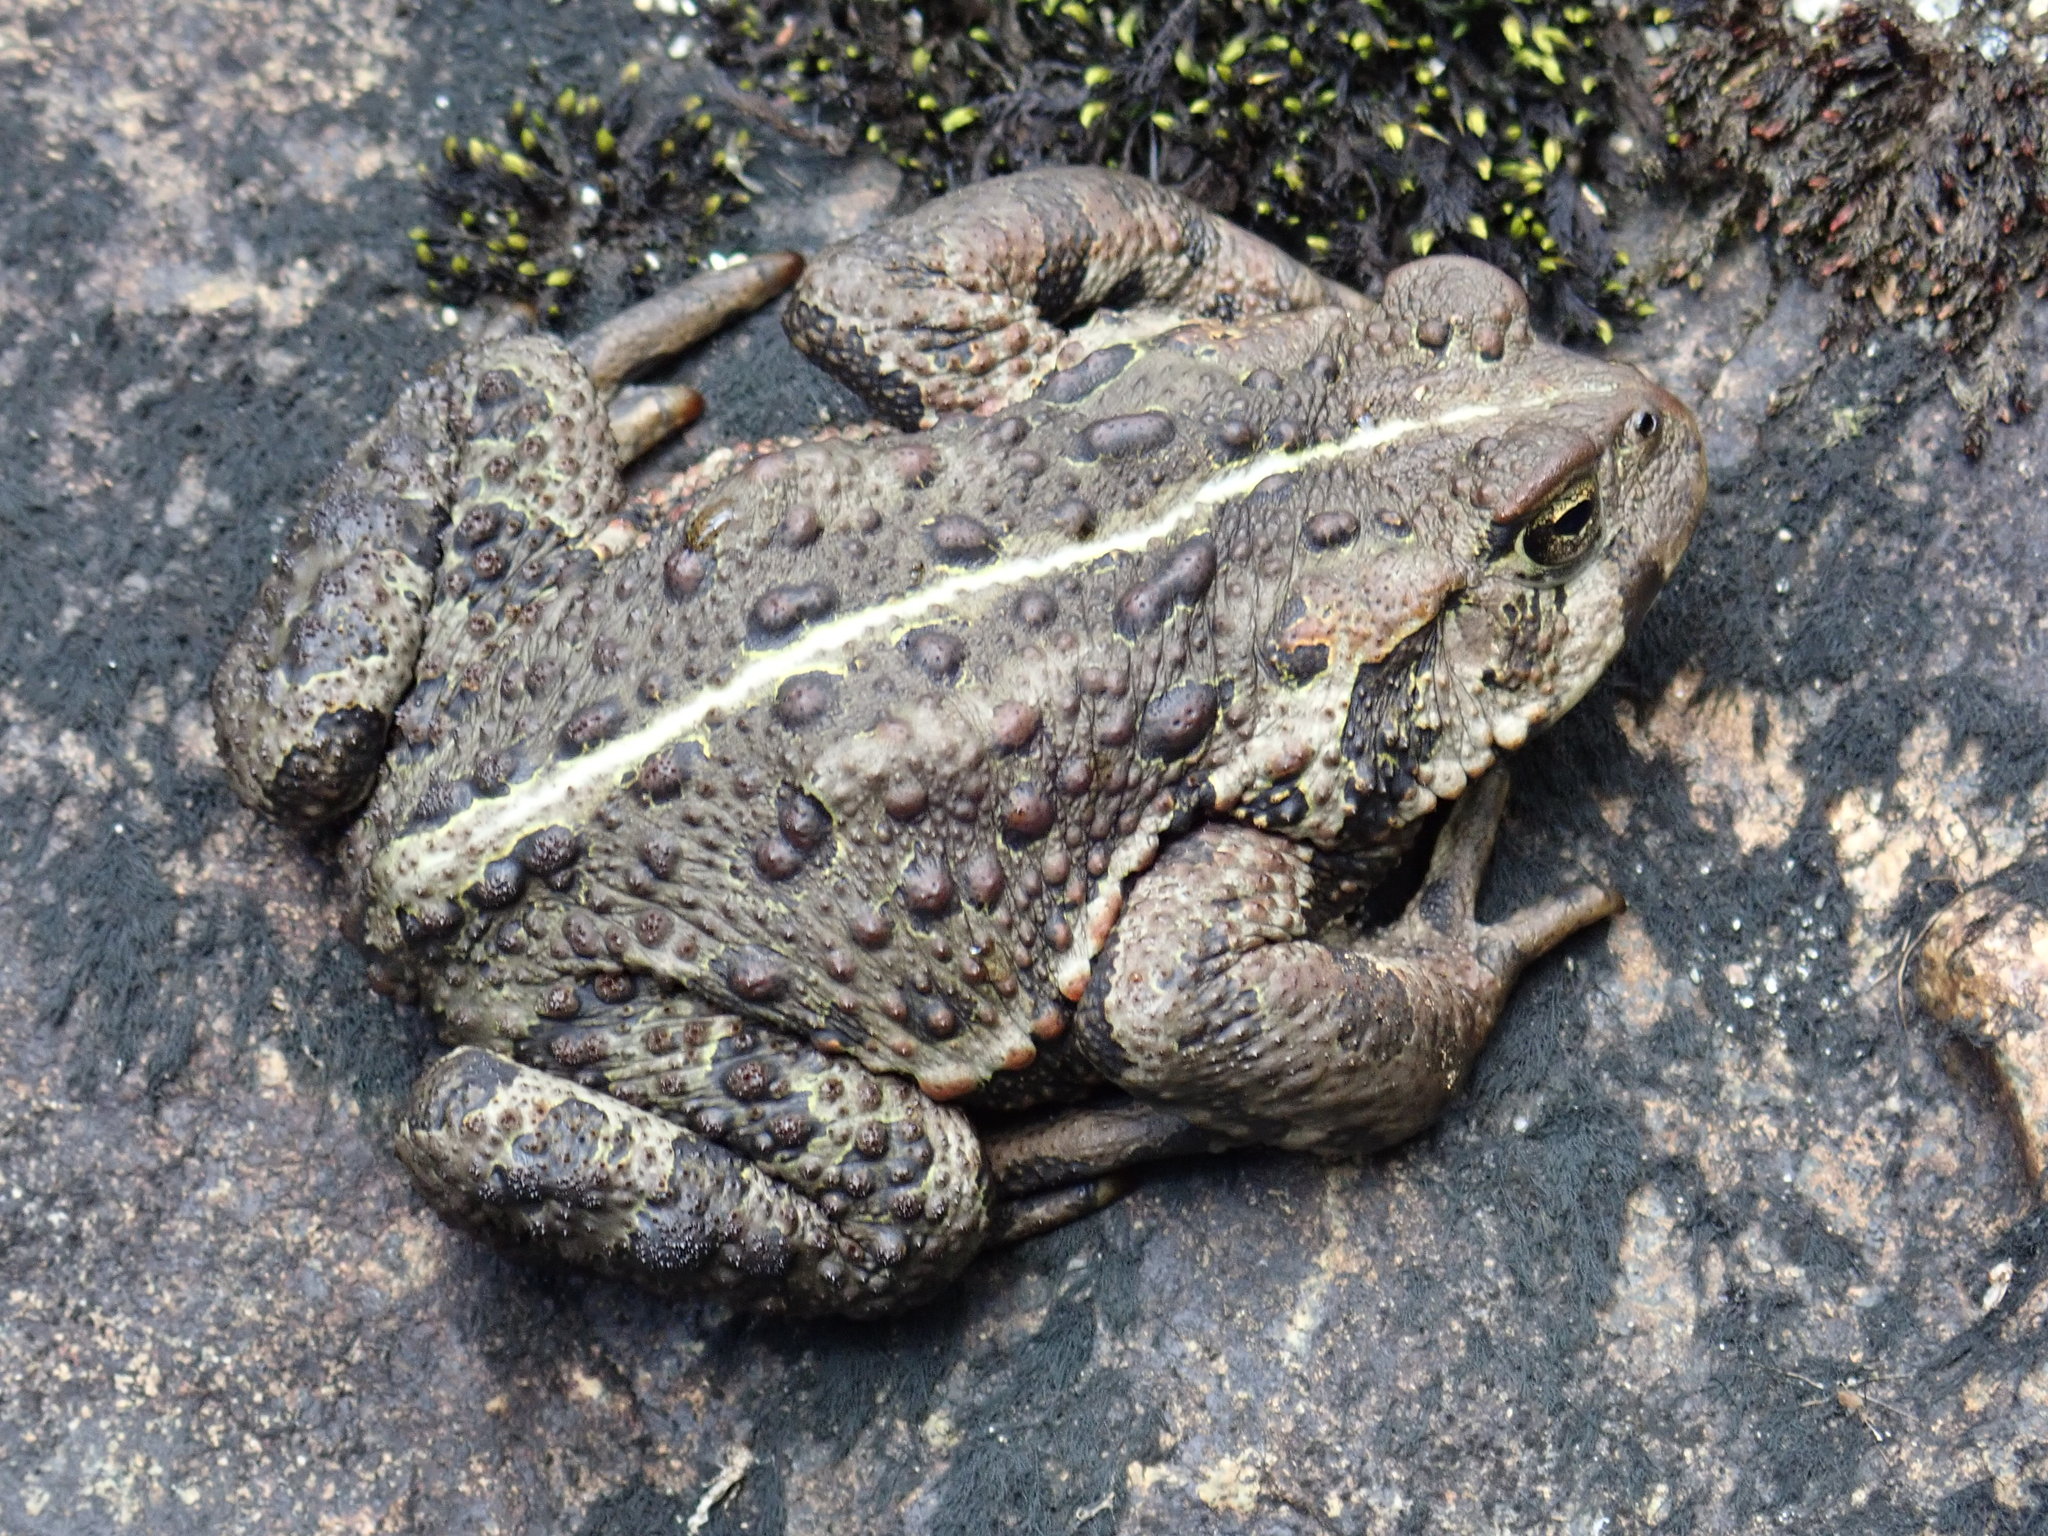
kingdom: Animalia
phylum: Chordata
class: Amphibia
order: Anura
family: Bufonidae
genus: Anaxyrus
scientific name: Anaxyrus boreas
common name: Western toad
